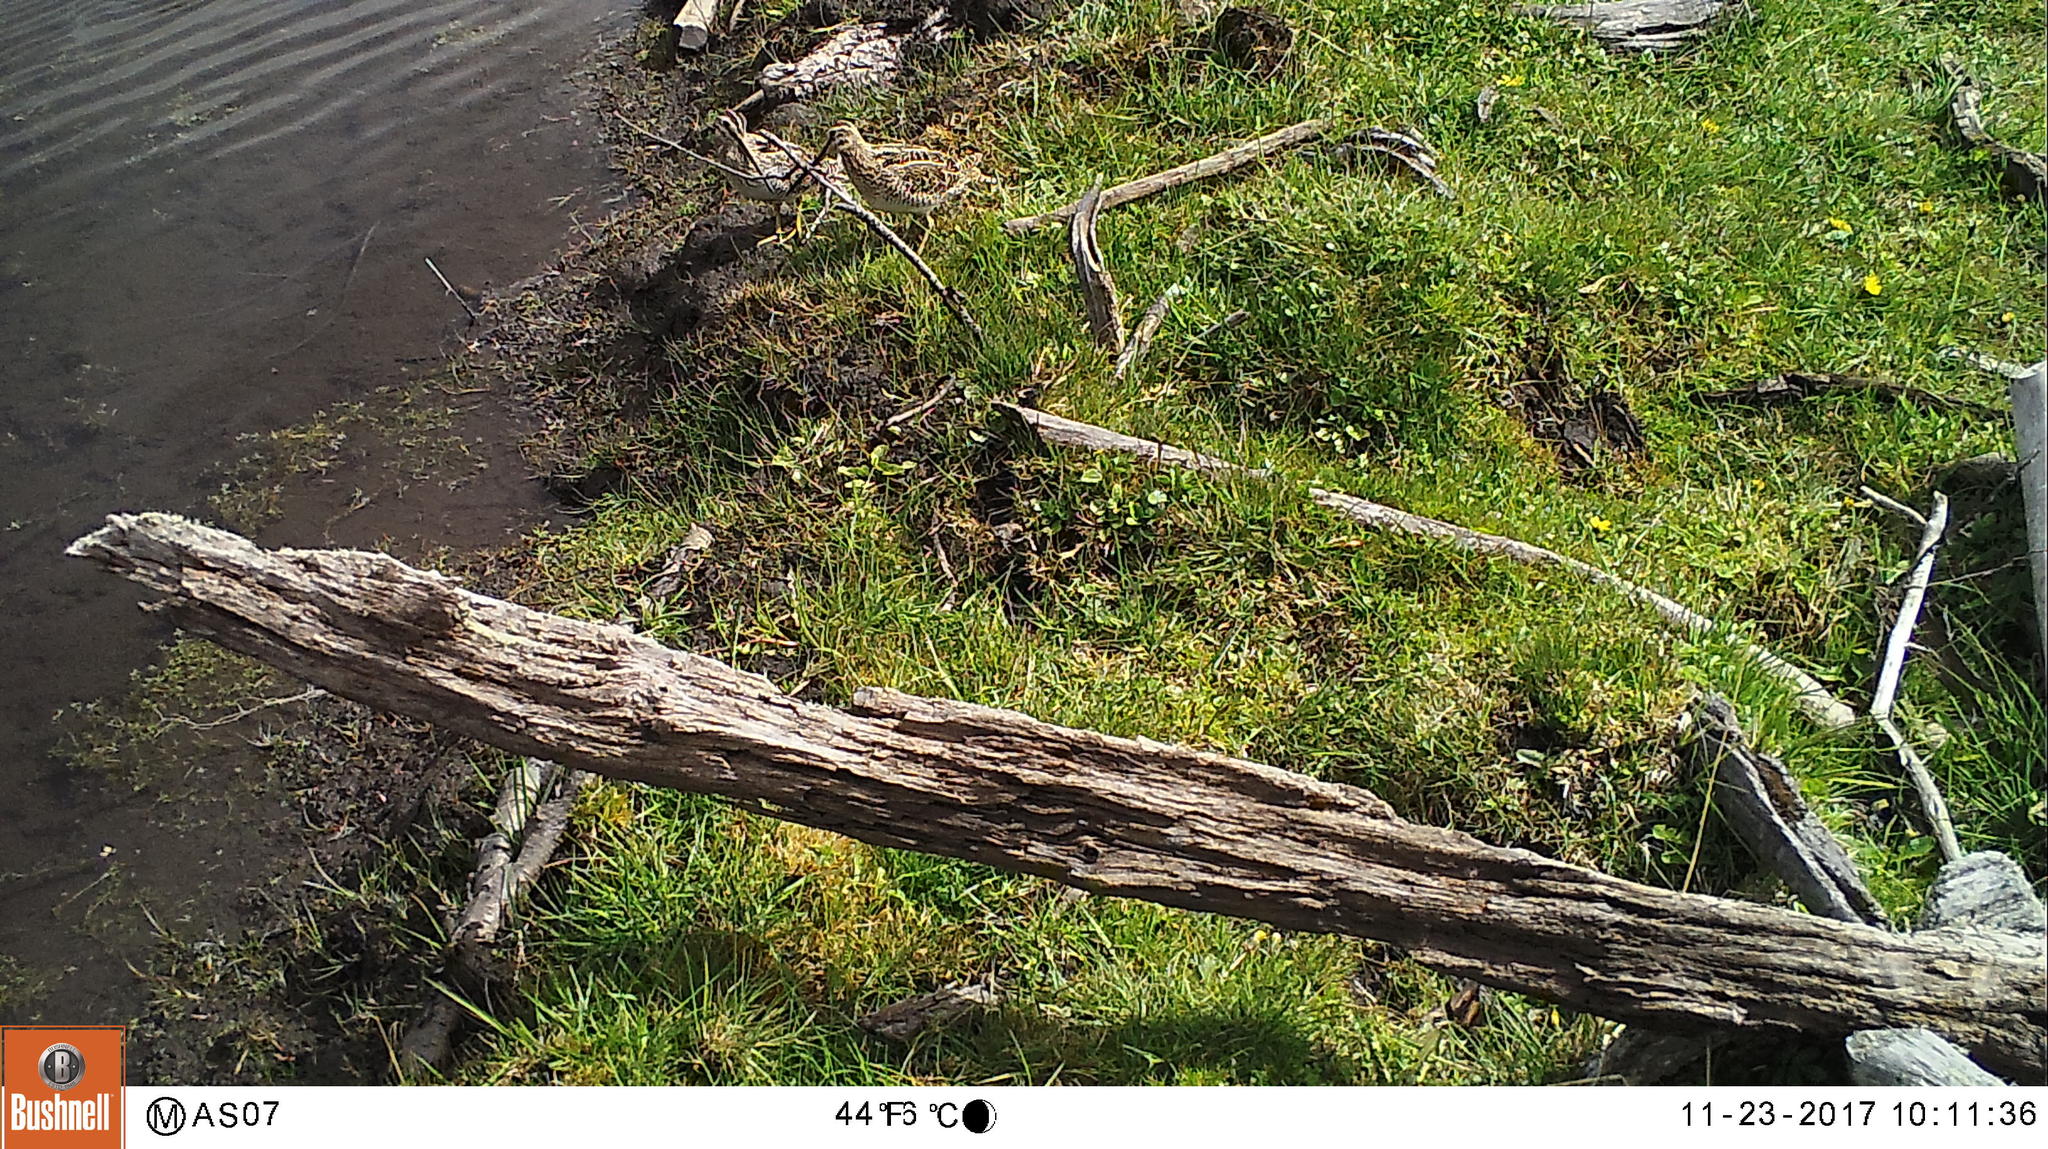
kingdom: Animalia
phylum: Chordata
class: Aves
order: Charadriiformes
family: Scolopacidae
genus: Gallinago
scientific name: Gallinago magellanica
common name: Magellanic snipe
